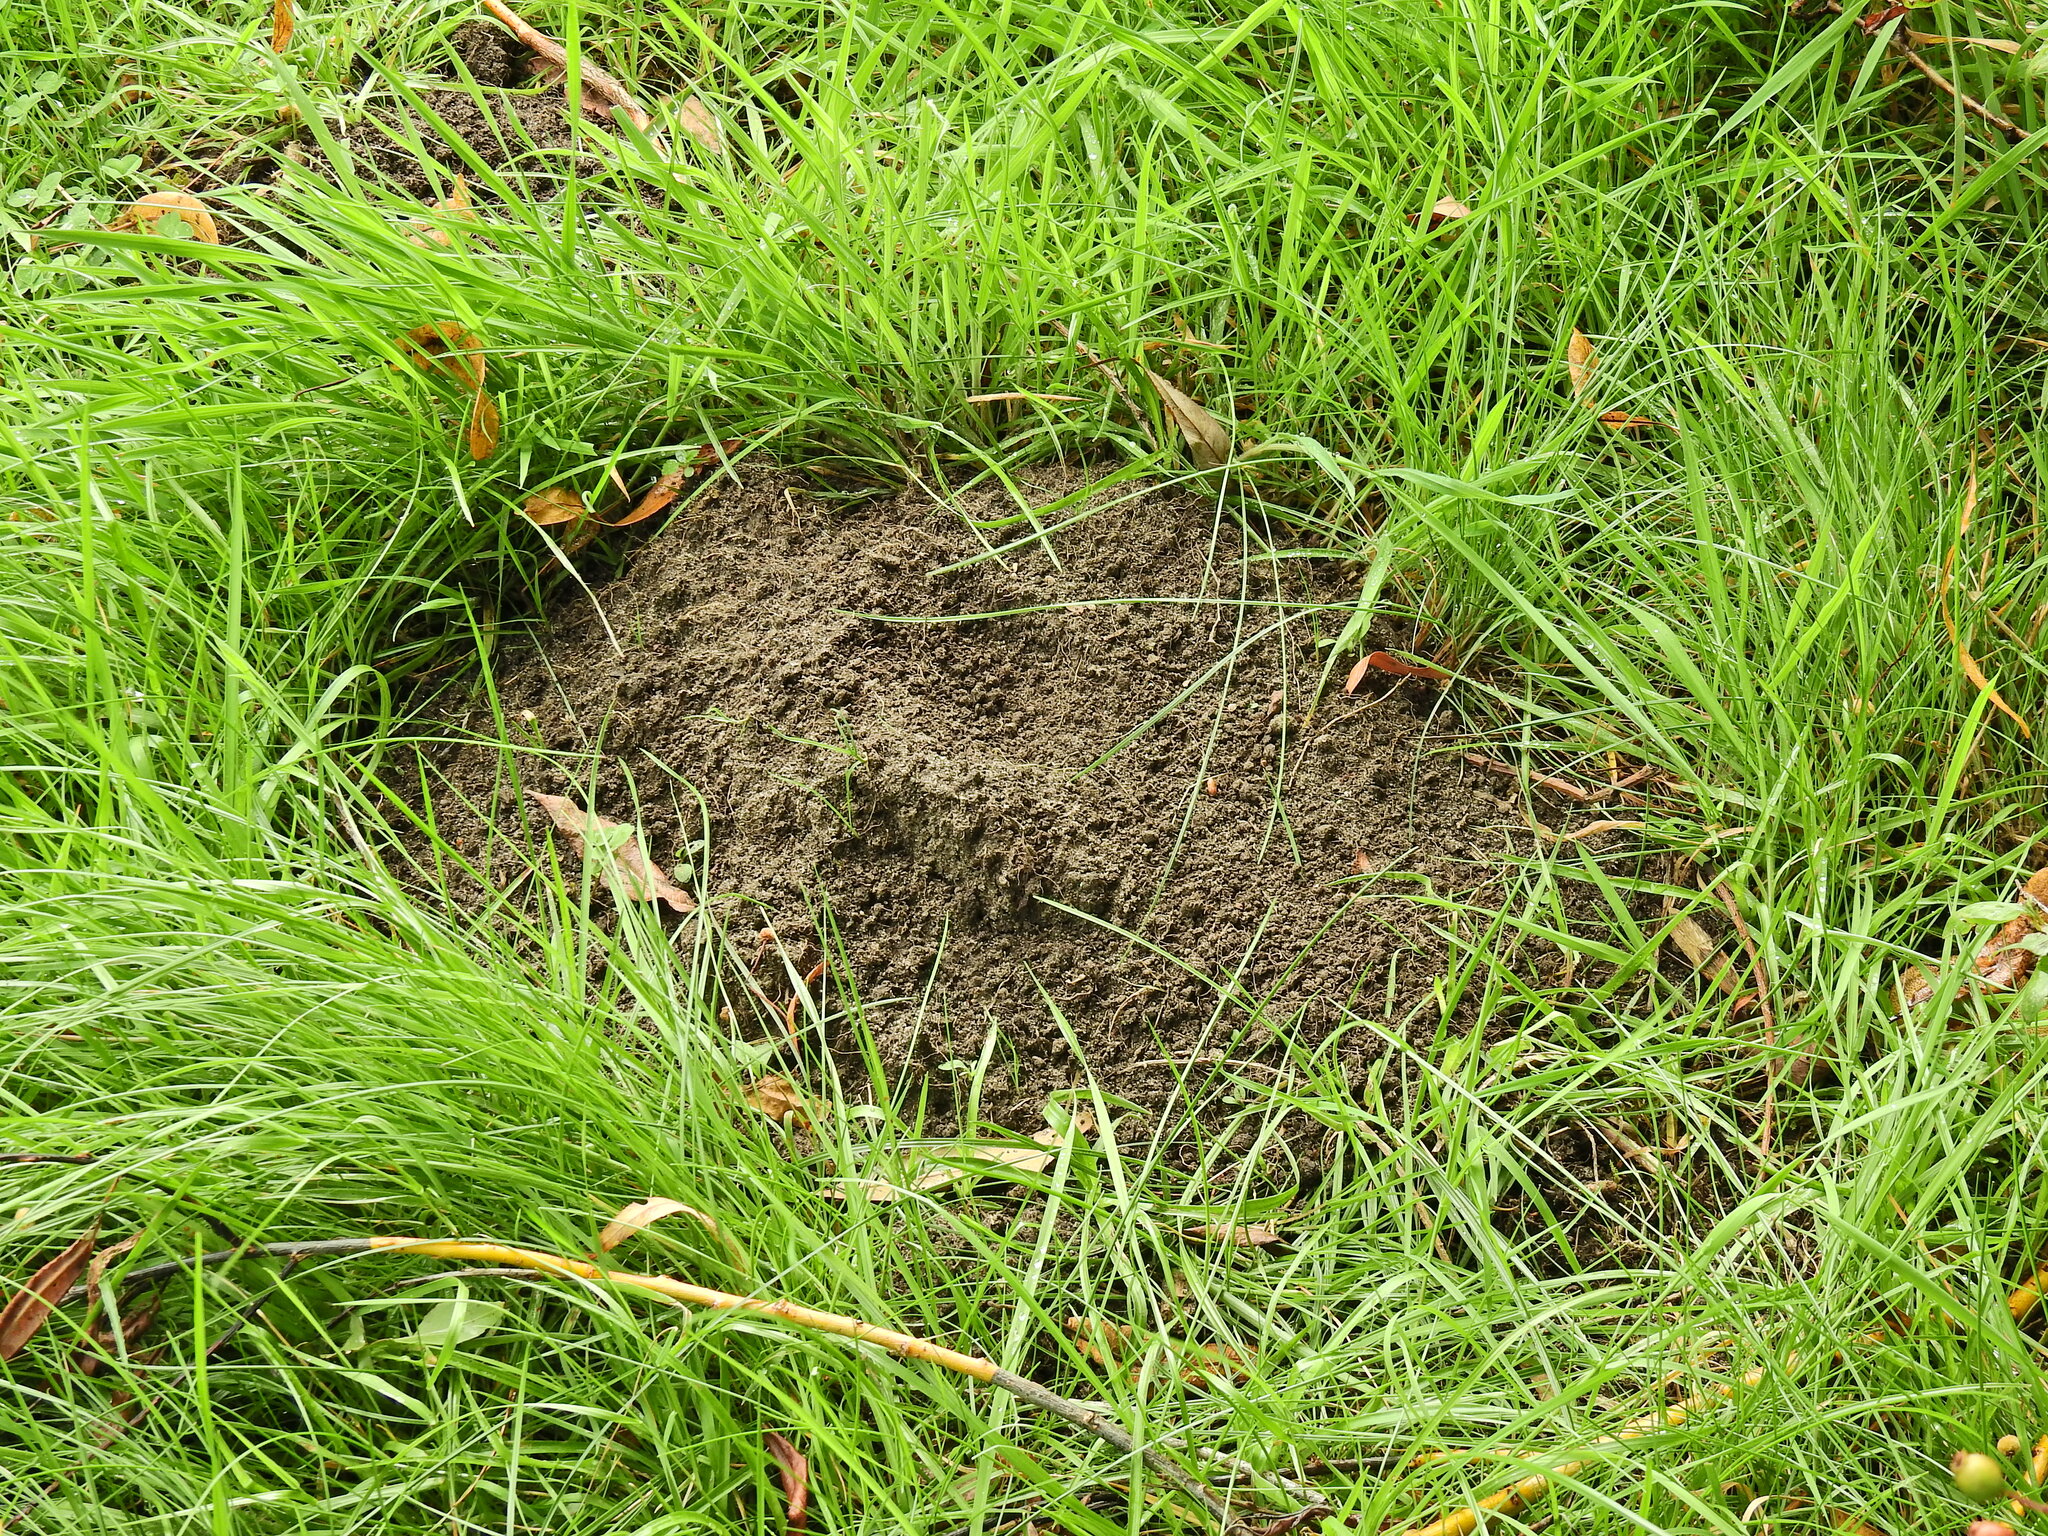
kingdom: Animalia
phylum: Chordata
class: Mammalia
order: Soricomorpha
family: Talpidae
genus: Talpa
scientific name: Talpa europaea
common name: European mole
